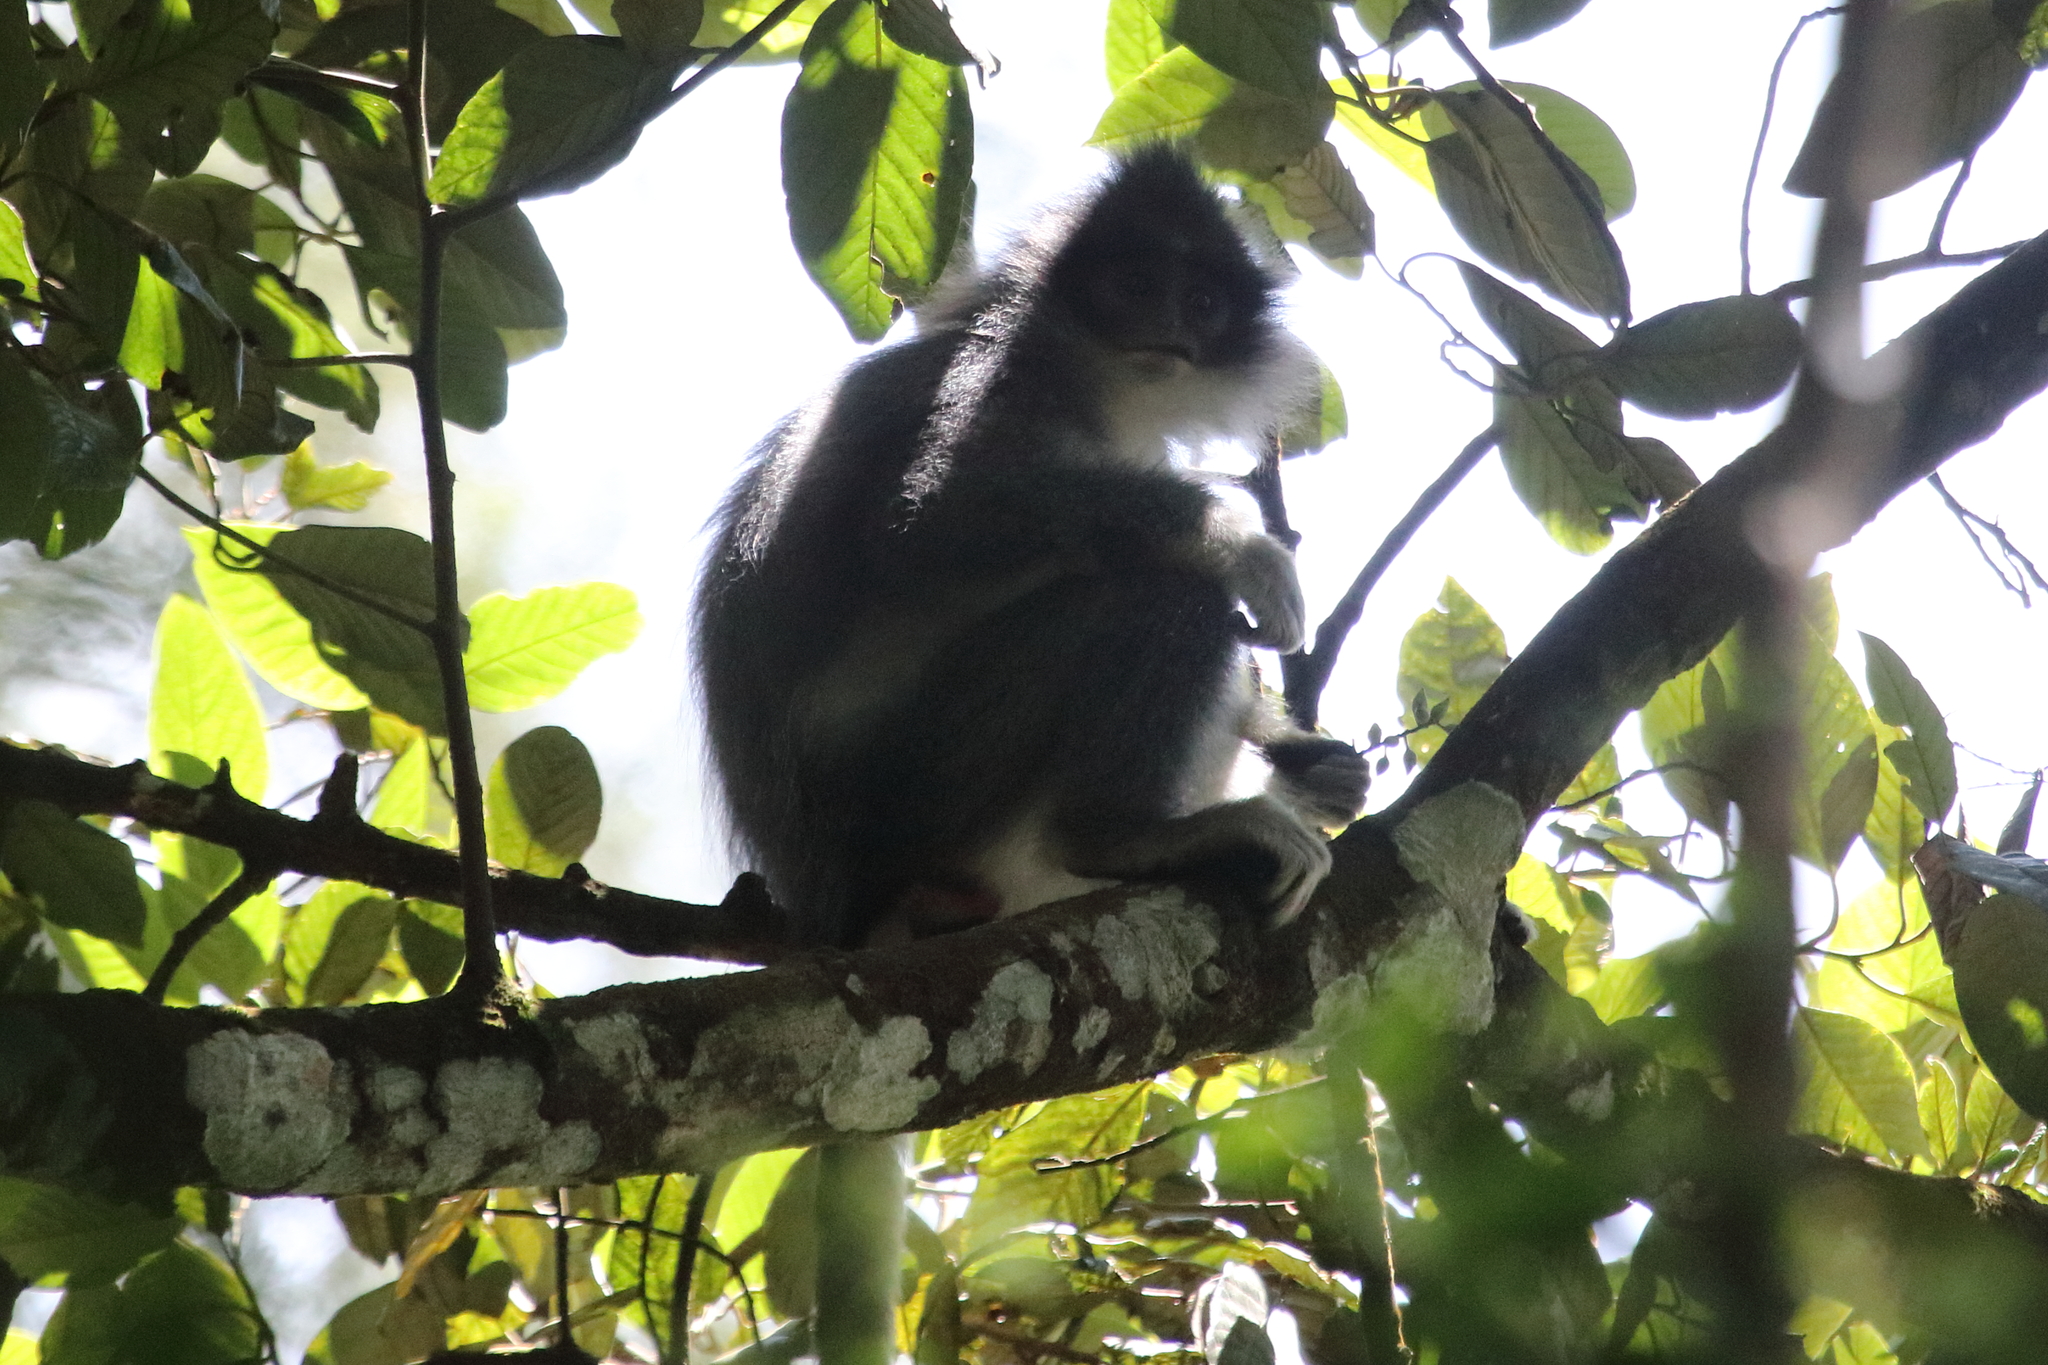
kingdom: Animalia
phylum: Chordata
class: Mammalia
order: Primates
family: Cercopithecidae
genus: Presbytis
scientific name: Presbytis comata
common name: Javan surili
